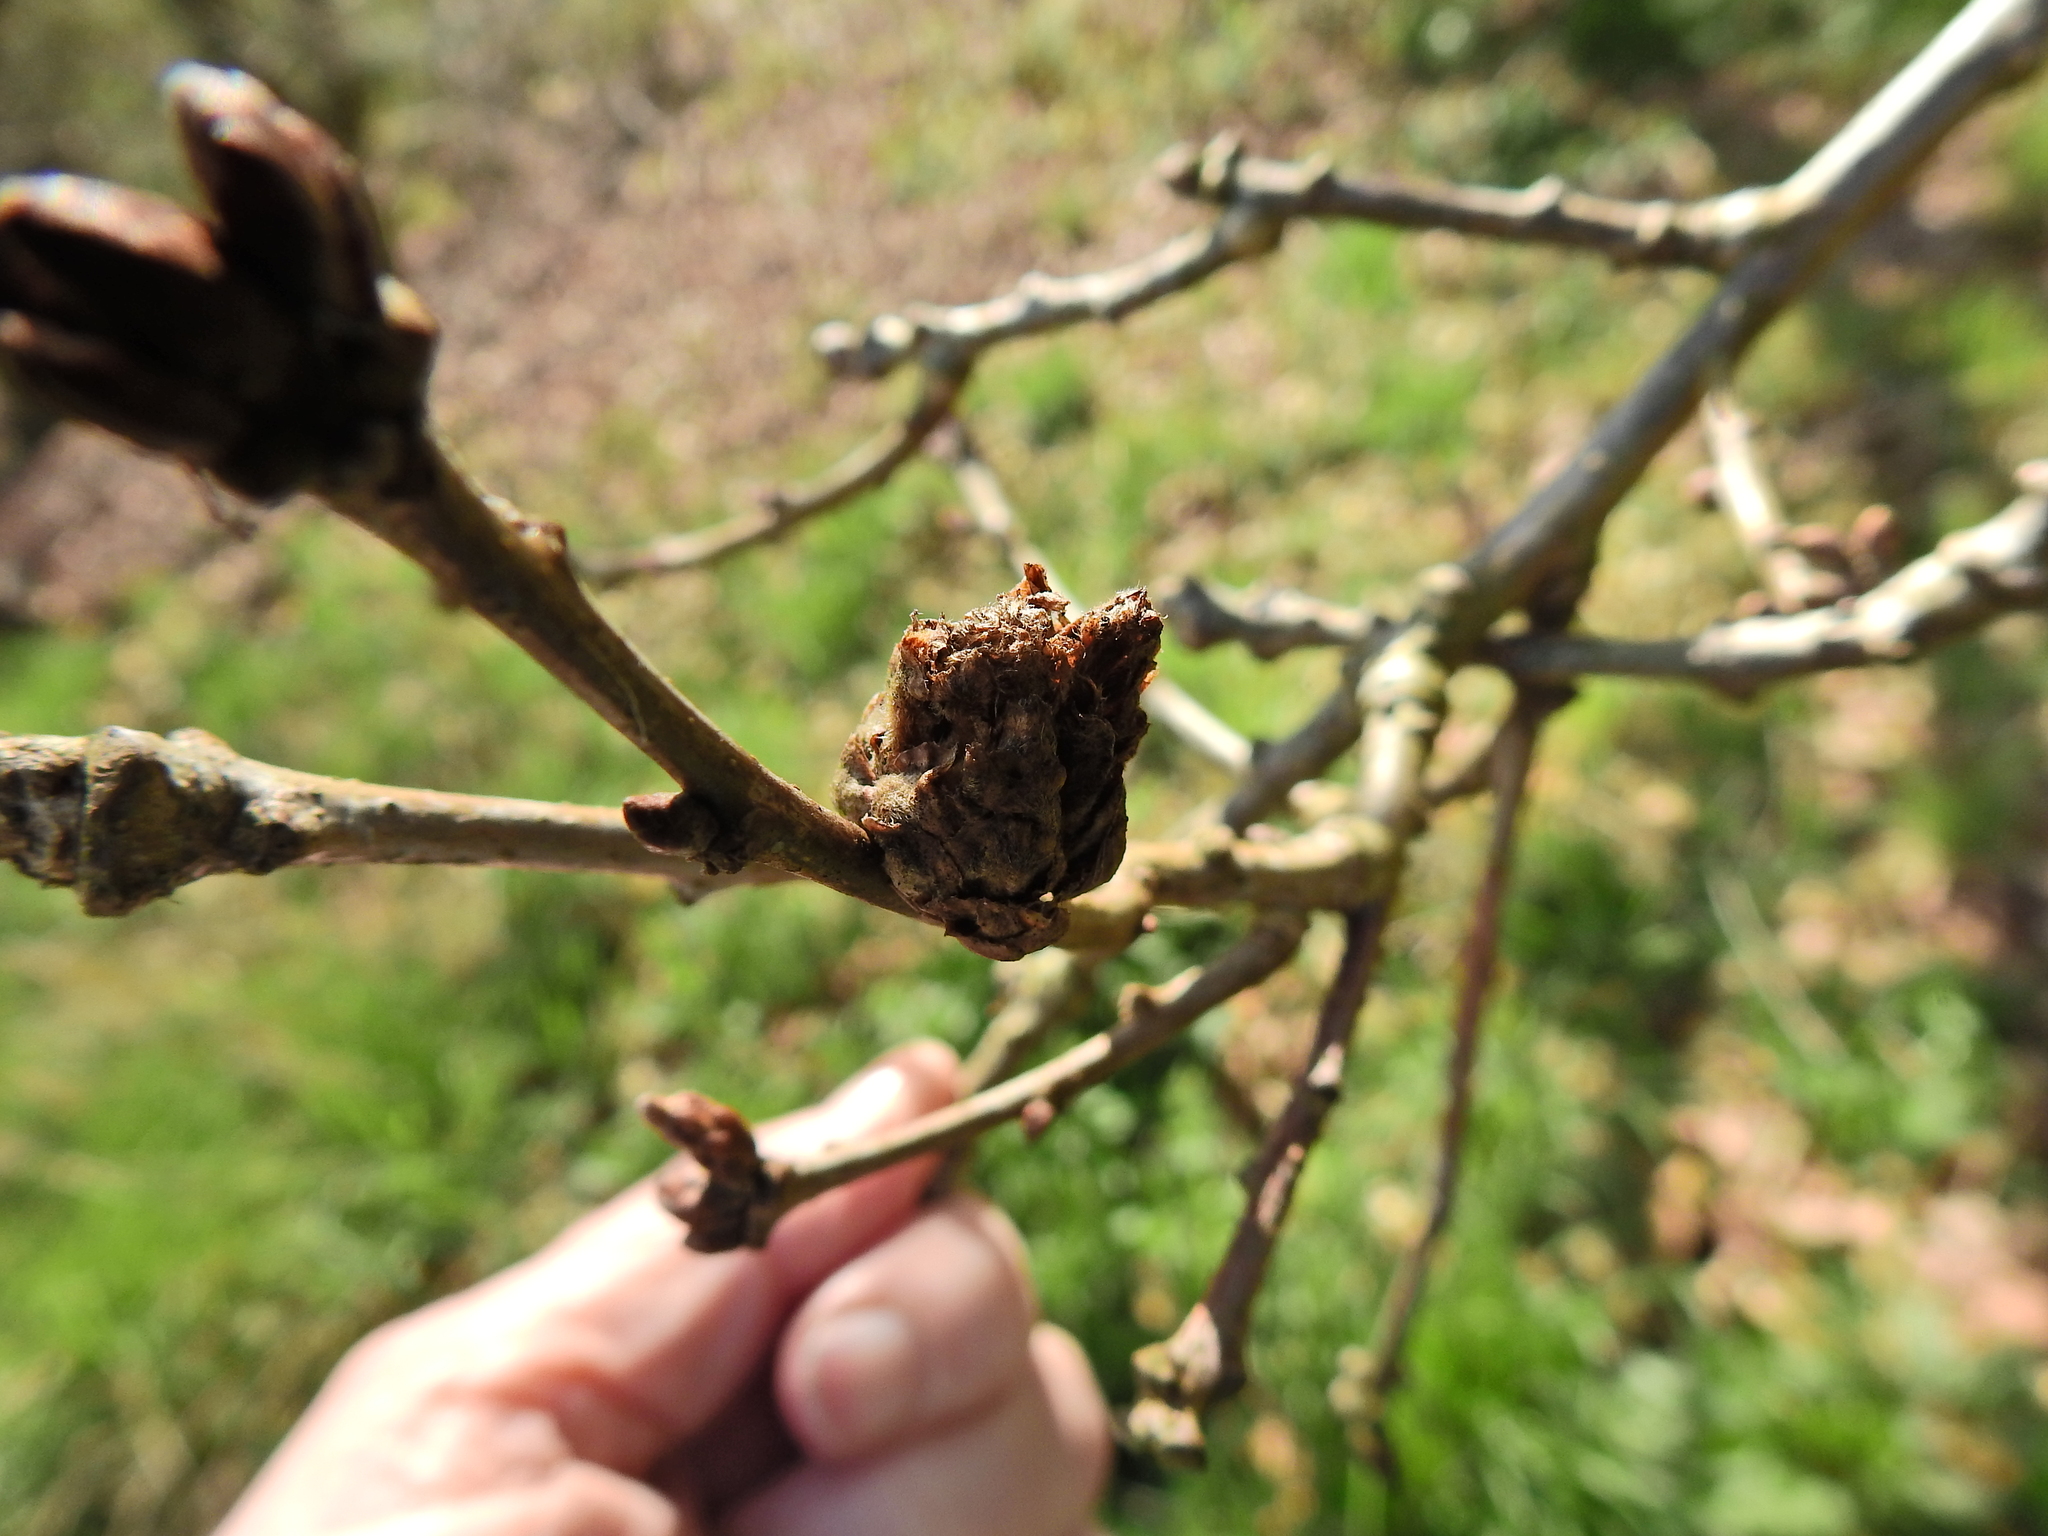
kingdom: Animalia
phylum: Arthropoda
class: Insecta
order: Hymenoptera
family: Cynipidae
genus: Andricus
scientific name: Andricus foecundatrix
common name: Artichoke gall
